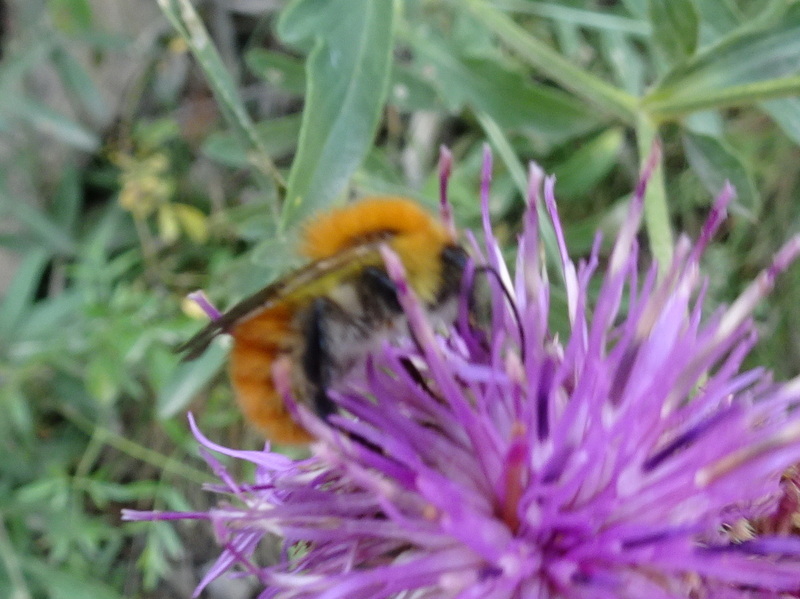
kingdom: Animalia
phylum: Arthropoda
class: Insecta
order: Hymenoptera
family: Apidae
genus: Bombus
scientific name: Bombus pascuorum
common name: Common carder bee
